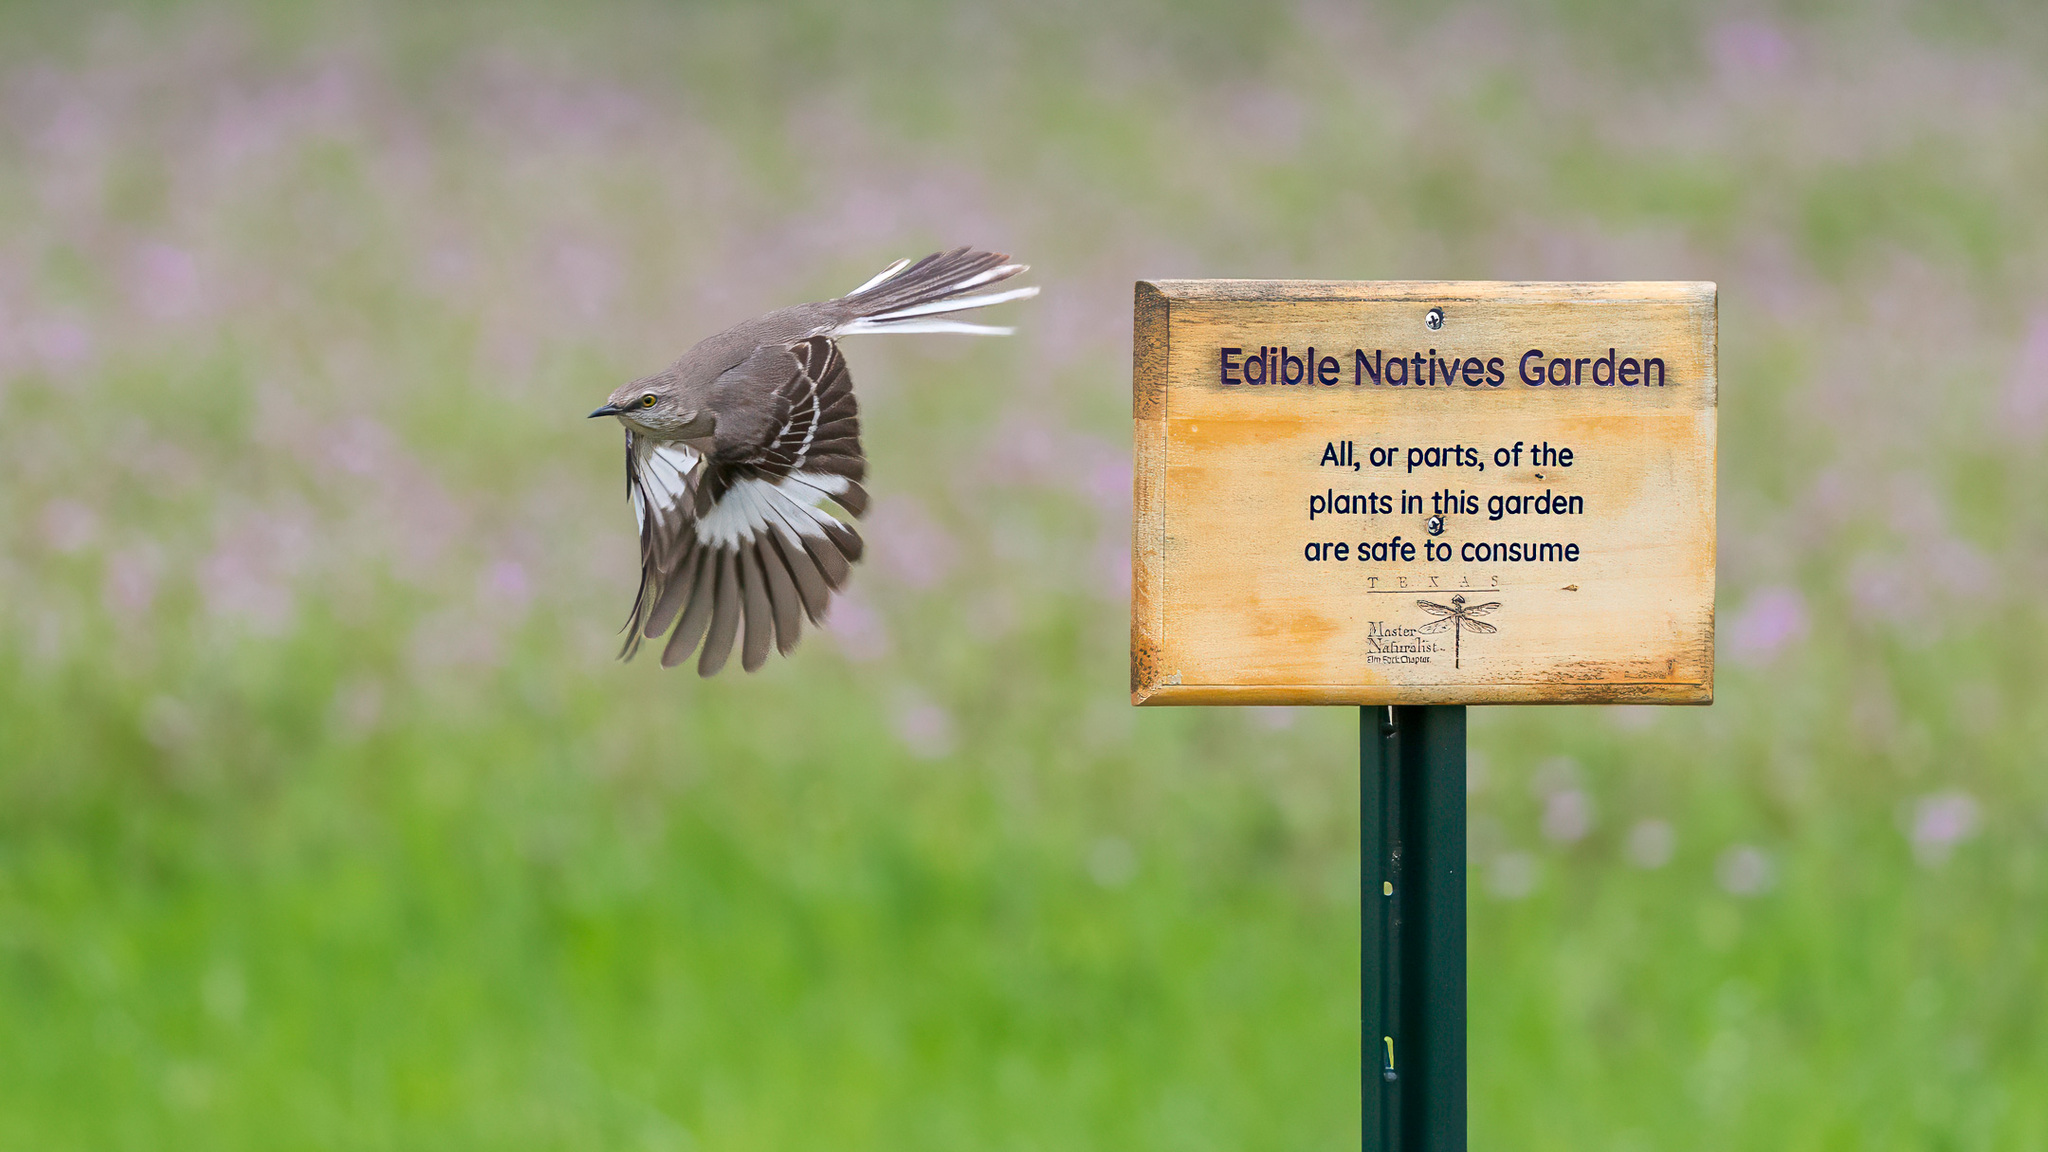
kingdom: Animalia
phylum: Chordata
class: Aves
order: Passeriformes
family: Mimidae
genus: Mimus
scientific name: Mimus polyglottos
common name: Northern mockingbird
